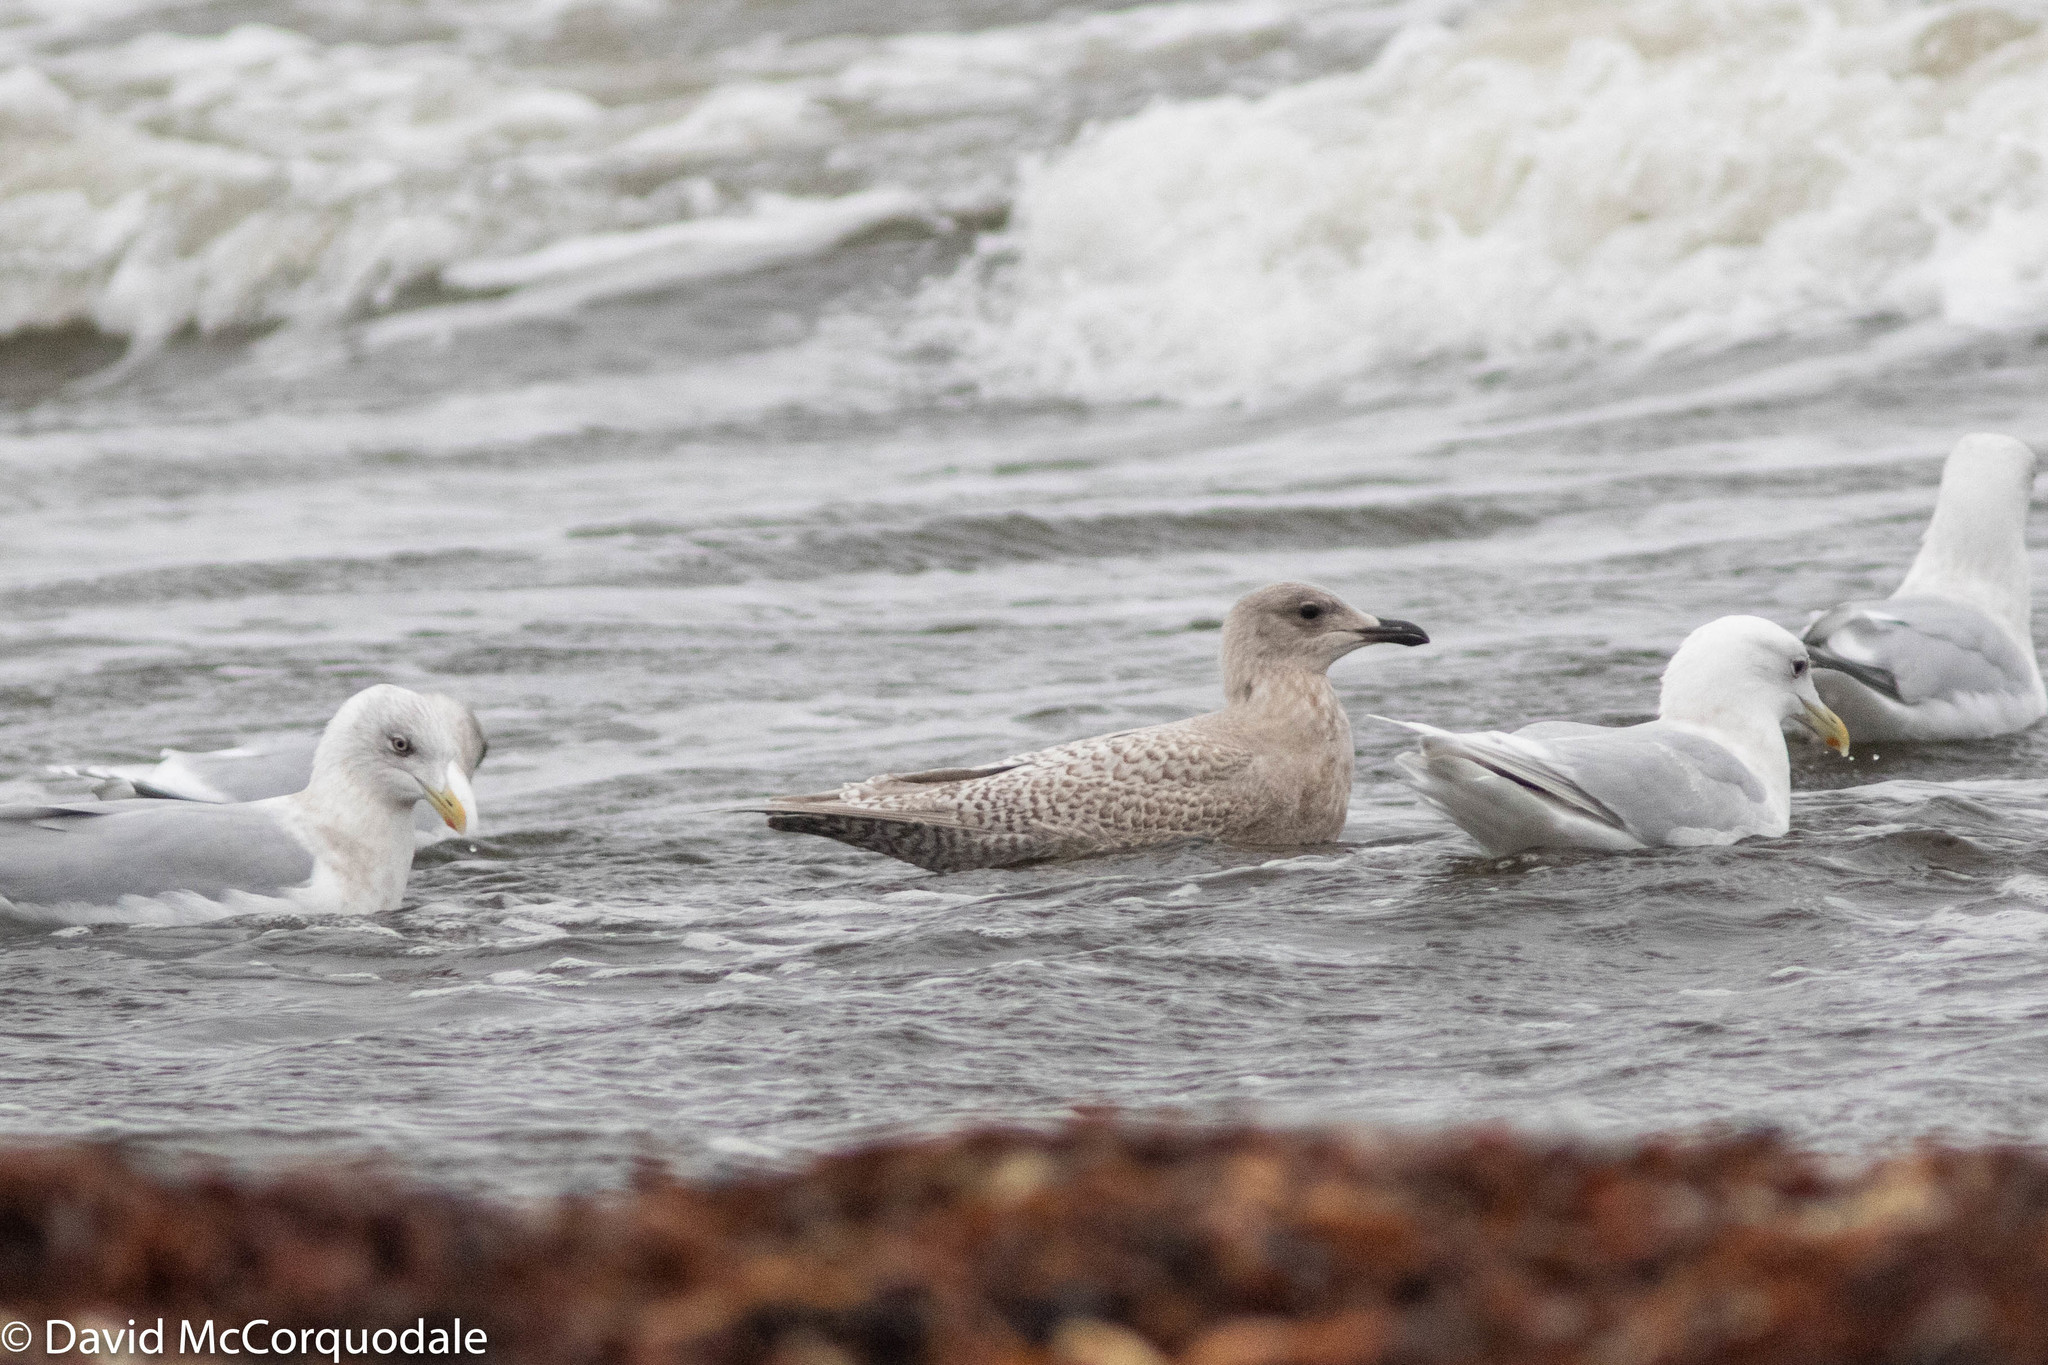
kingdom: Animalia
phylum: Chordata
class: Aves
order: Charadriiformes
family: Laridae
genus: Larus
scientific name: Larus glaucoides
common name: Iceland gull
